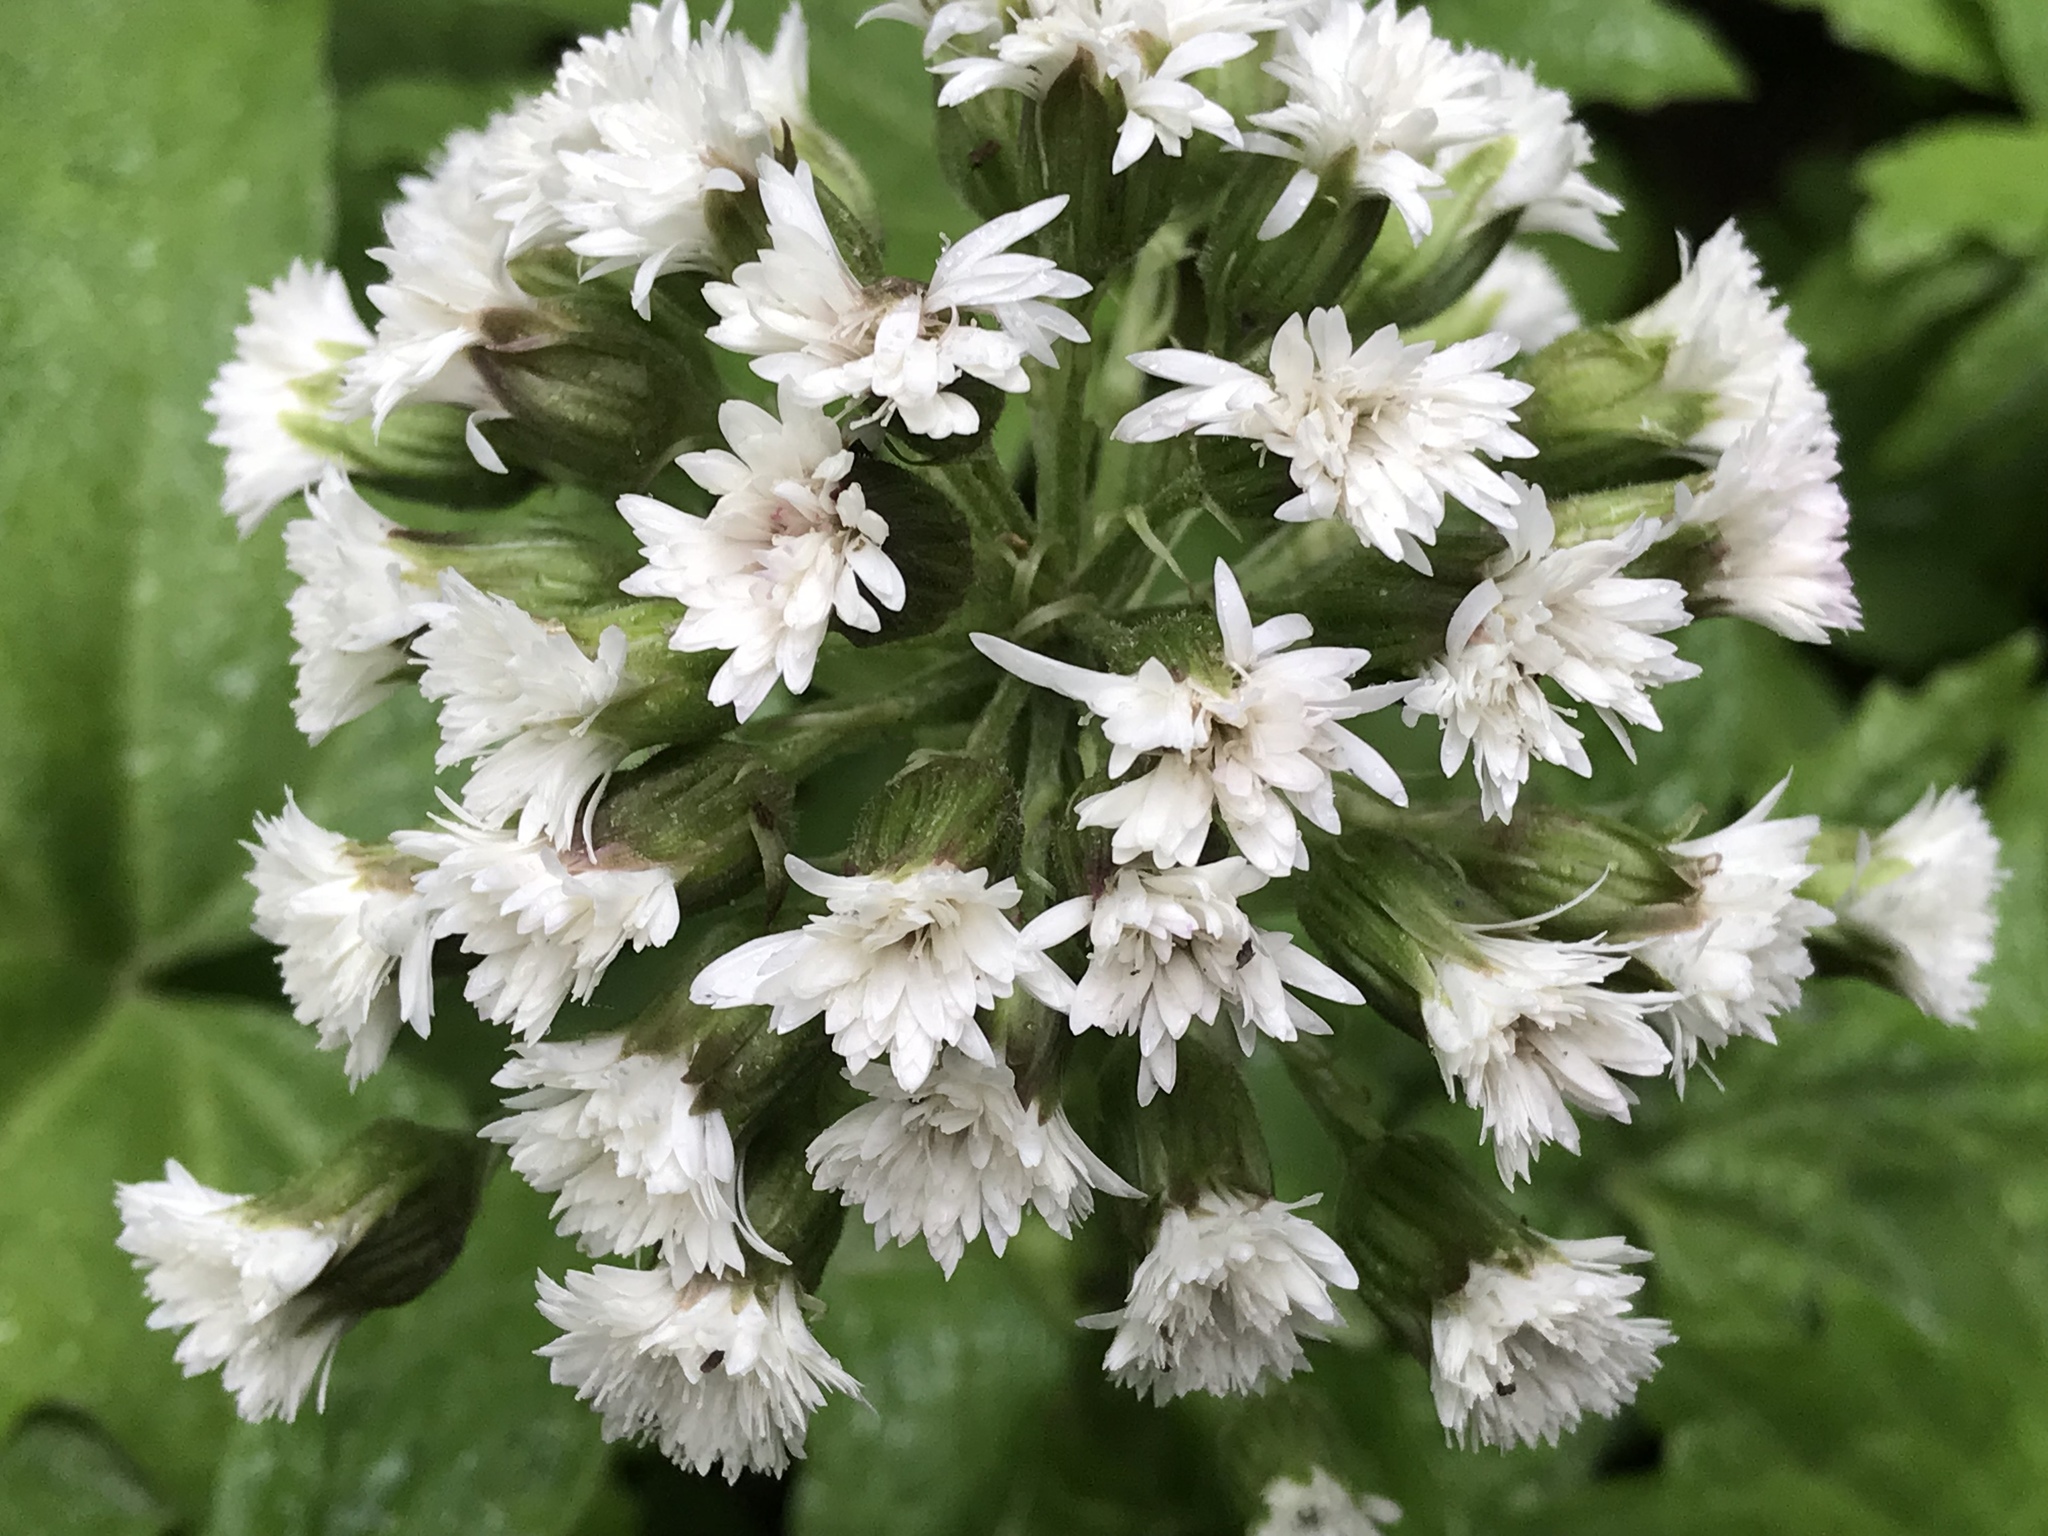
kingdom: Plantae
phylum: Tracheophyta
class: Magnoliopsida
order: Asterales
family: Asteraceae
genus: Petasites
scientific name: Petasites frigidus
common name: Arctic butterbur
